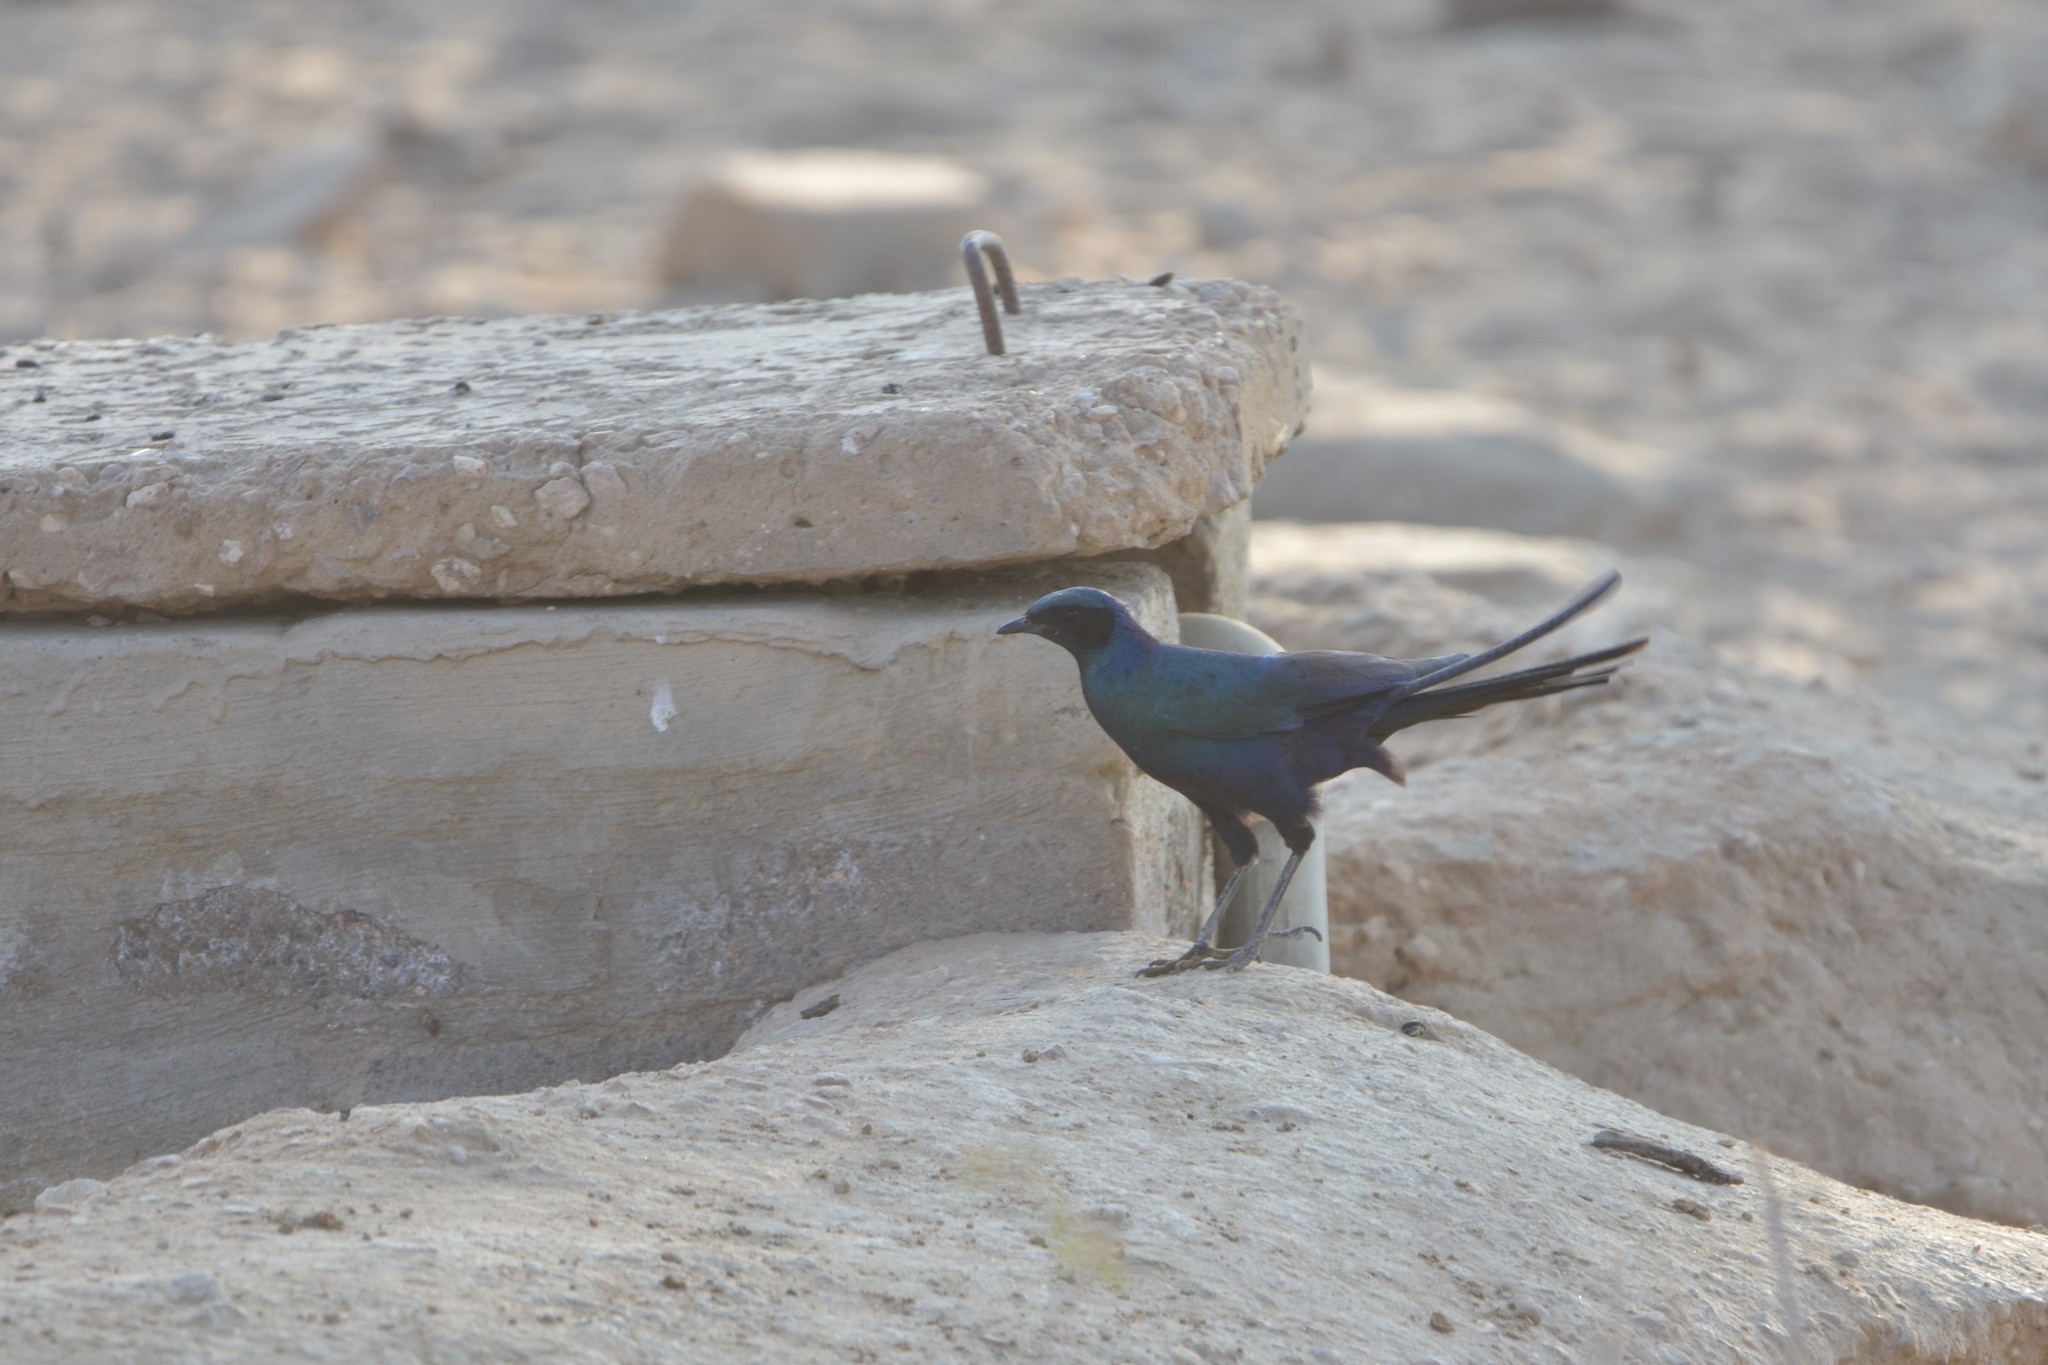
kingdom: Animalia
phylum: Chordata
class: Aves
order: Passeriformes
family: Sturnidae
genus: Lamprotornis
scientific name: Lamprotornis australis
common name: Burchell's starling
